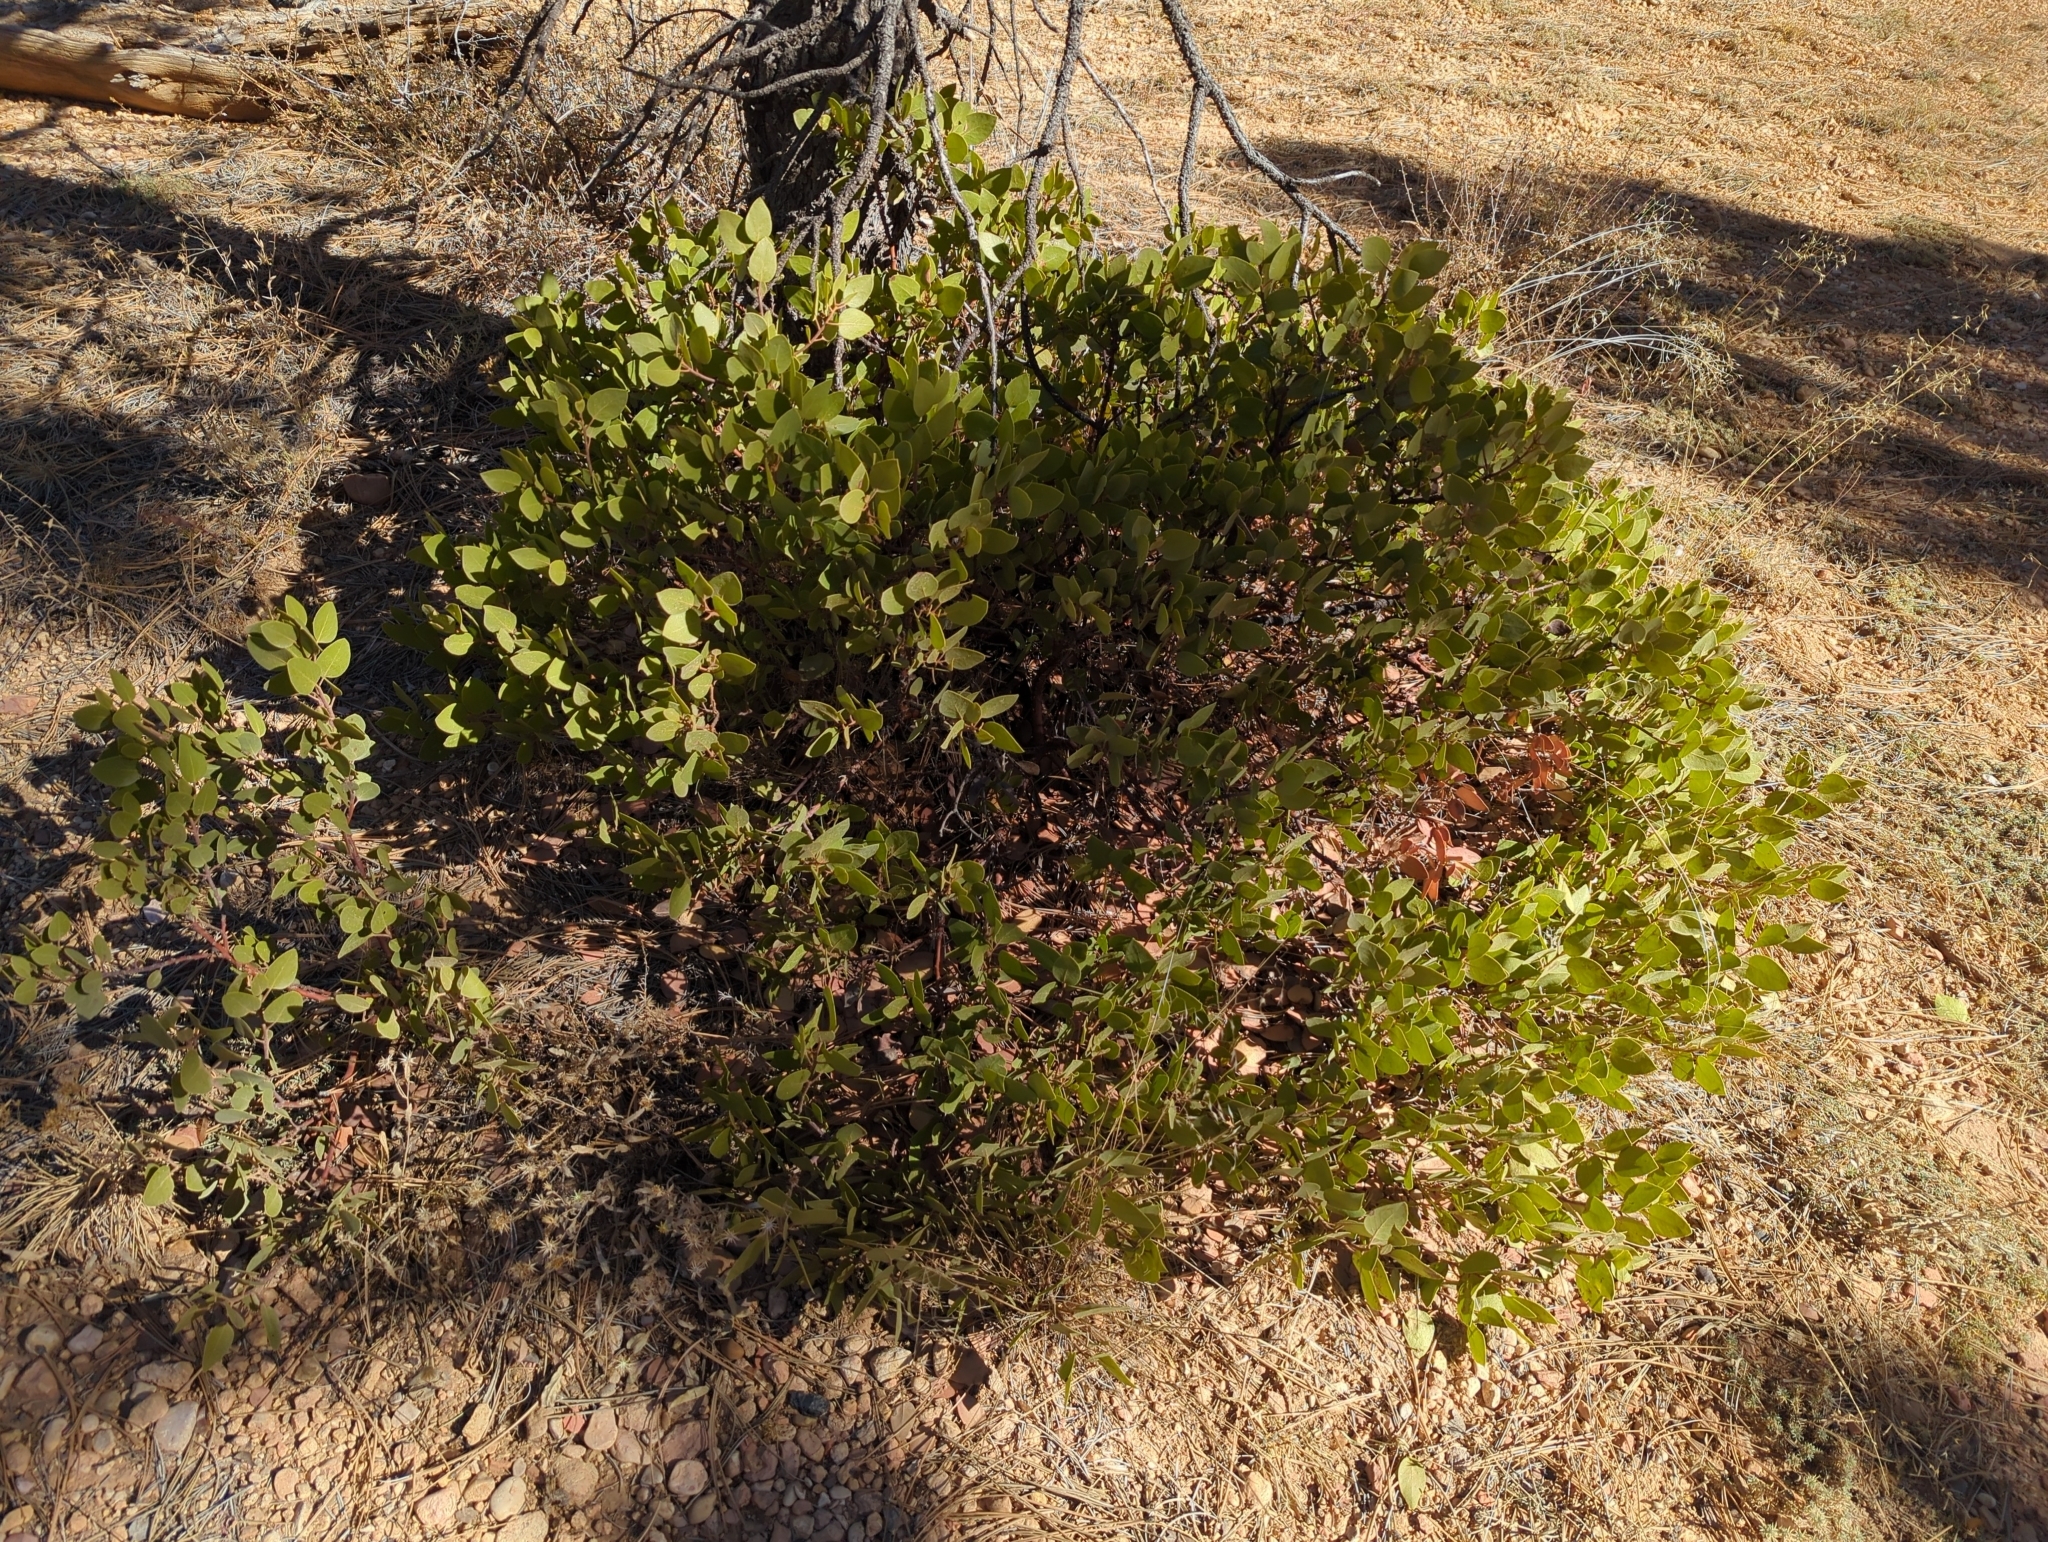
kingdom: Plantae
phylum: Tracheophyta
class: Magnoliopsida
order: Ericales
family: Ericaceae
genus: Arctostaphylos
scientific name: Arctostaphylos patula
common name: Green-leaf manzanita
